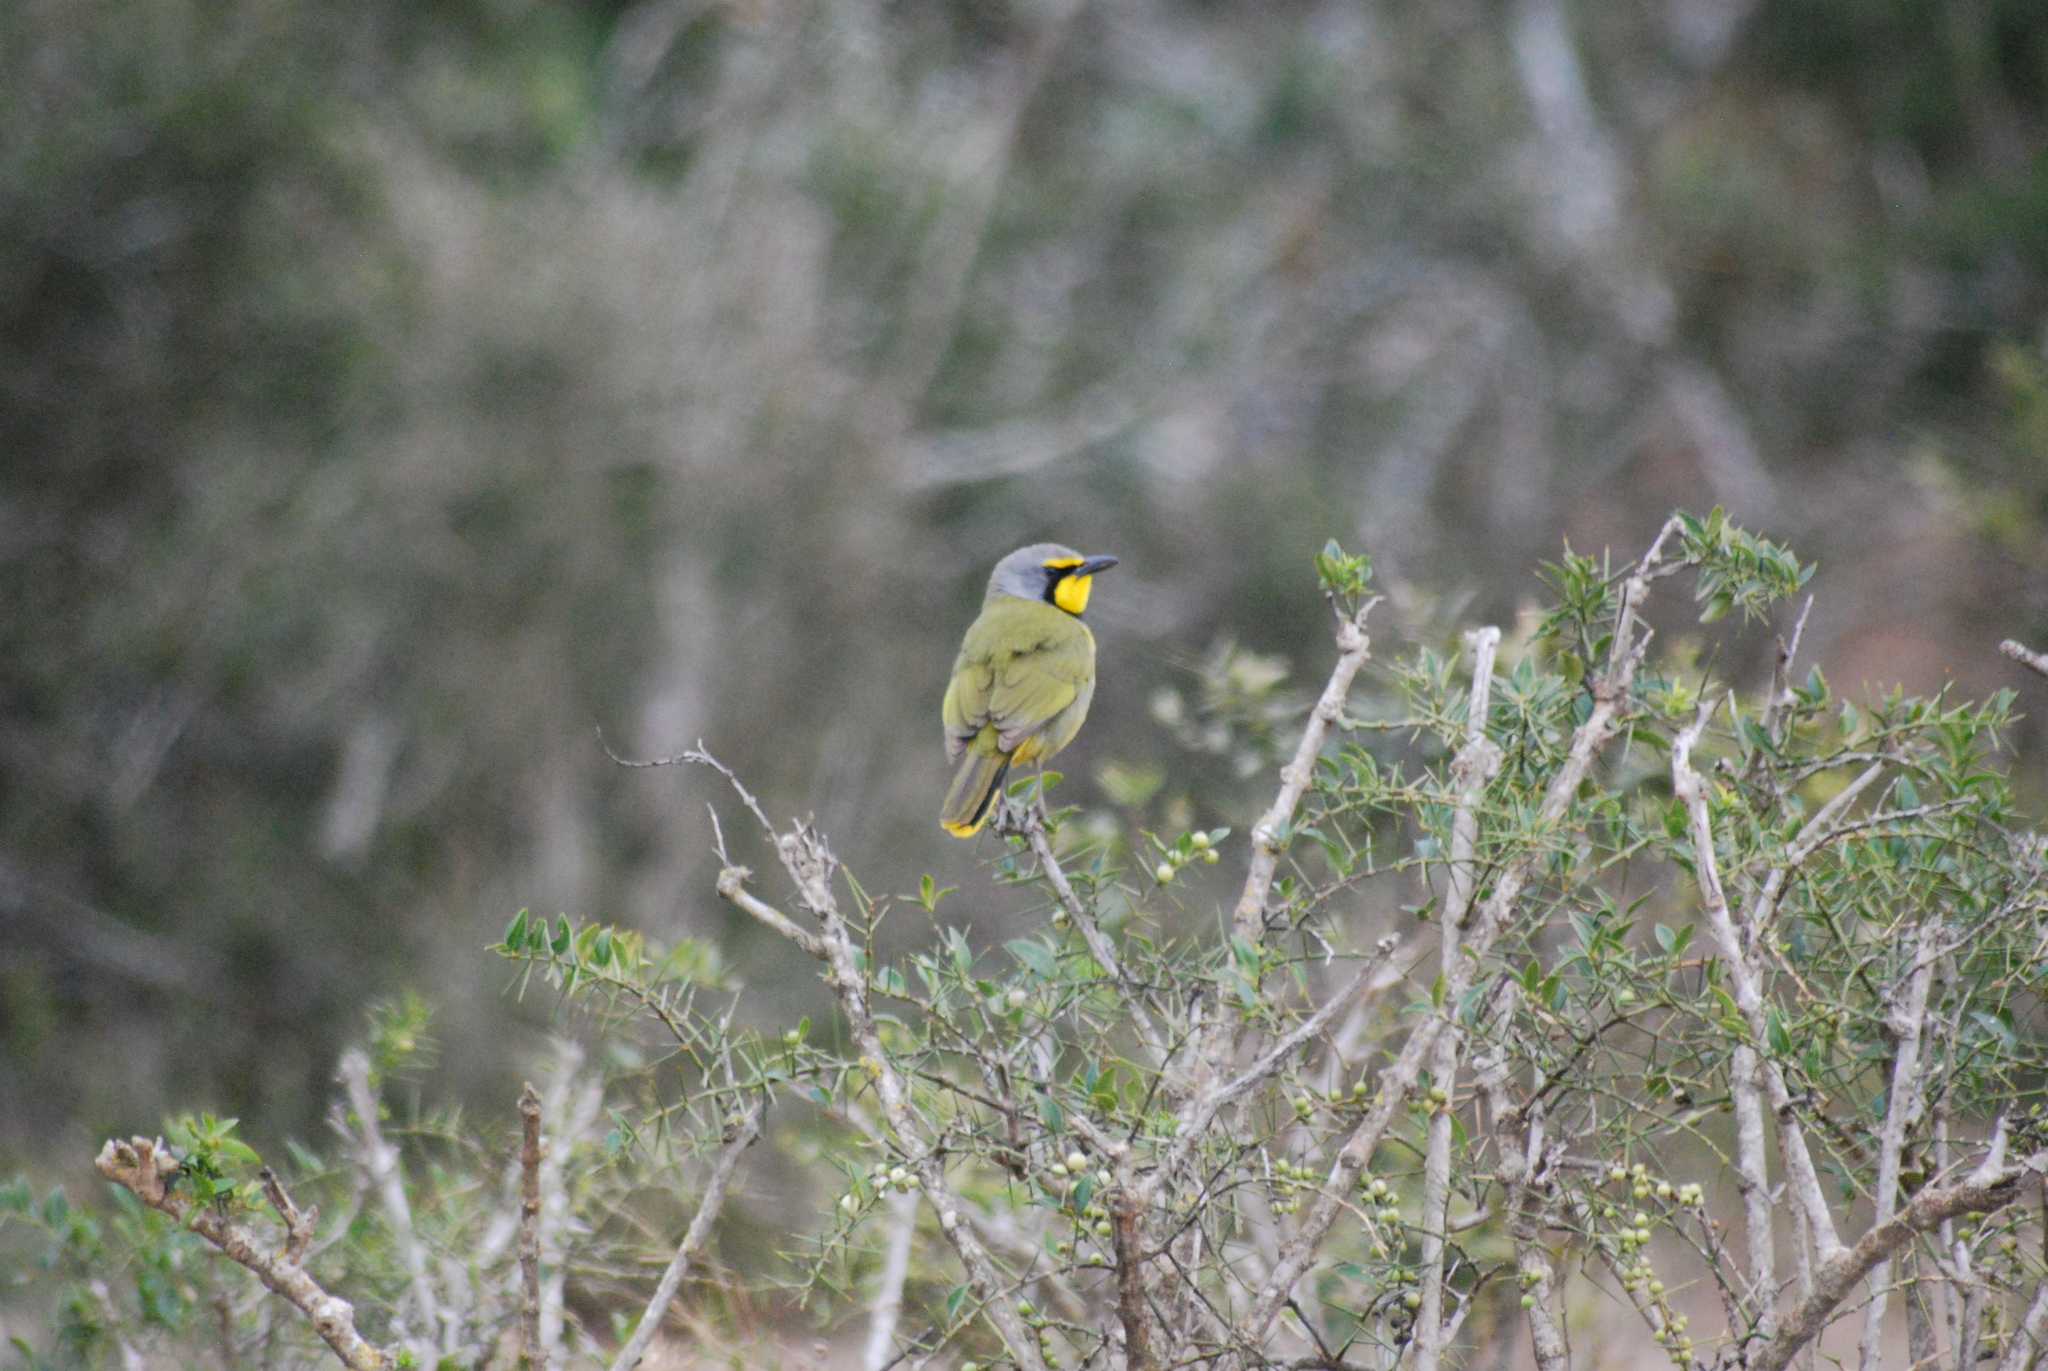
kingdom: Animalia
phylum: Chordata
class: Aves
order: Passeriformes
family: Malaconotidae
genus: Telophorus
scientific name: Telophorus zeylonus
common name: Bokmakierie
